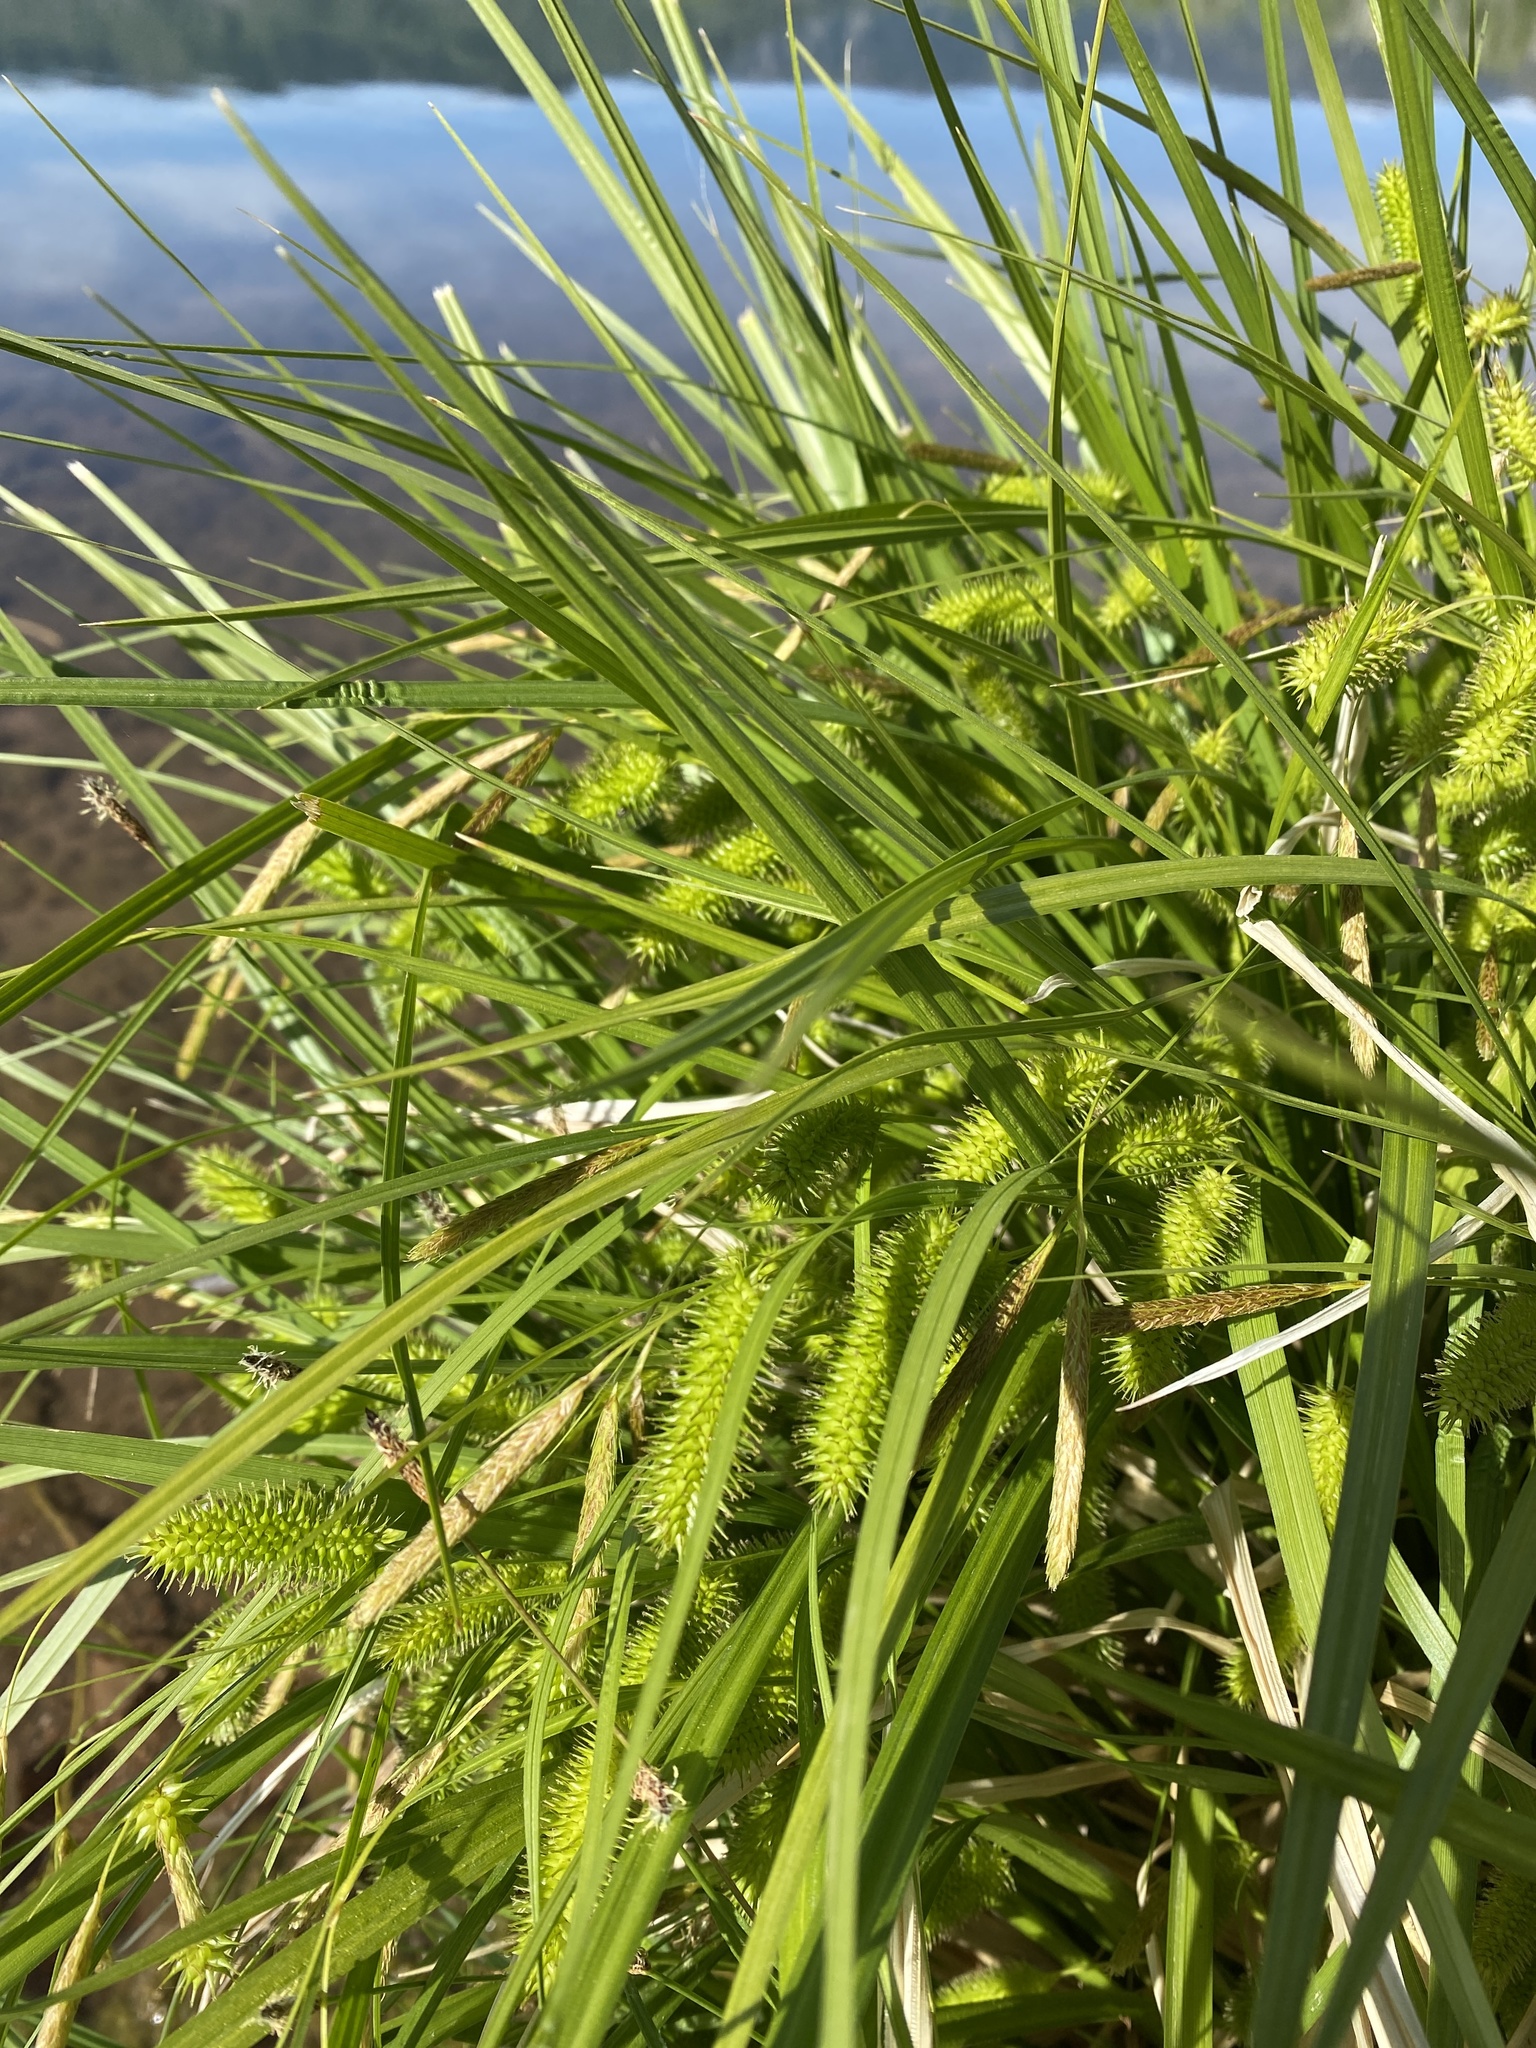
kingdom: Plantae
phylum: Tracheophyta
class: Liliopsida
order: Poales
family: Cyperaceae
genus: Carex
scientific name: Carex hystericina
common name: Bottlebrush sedge
